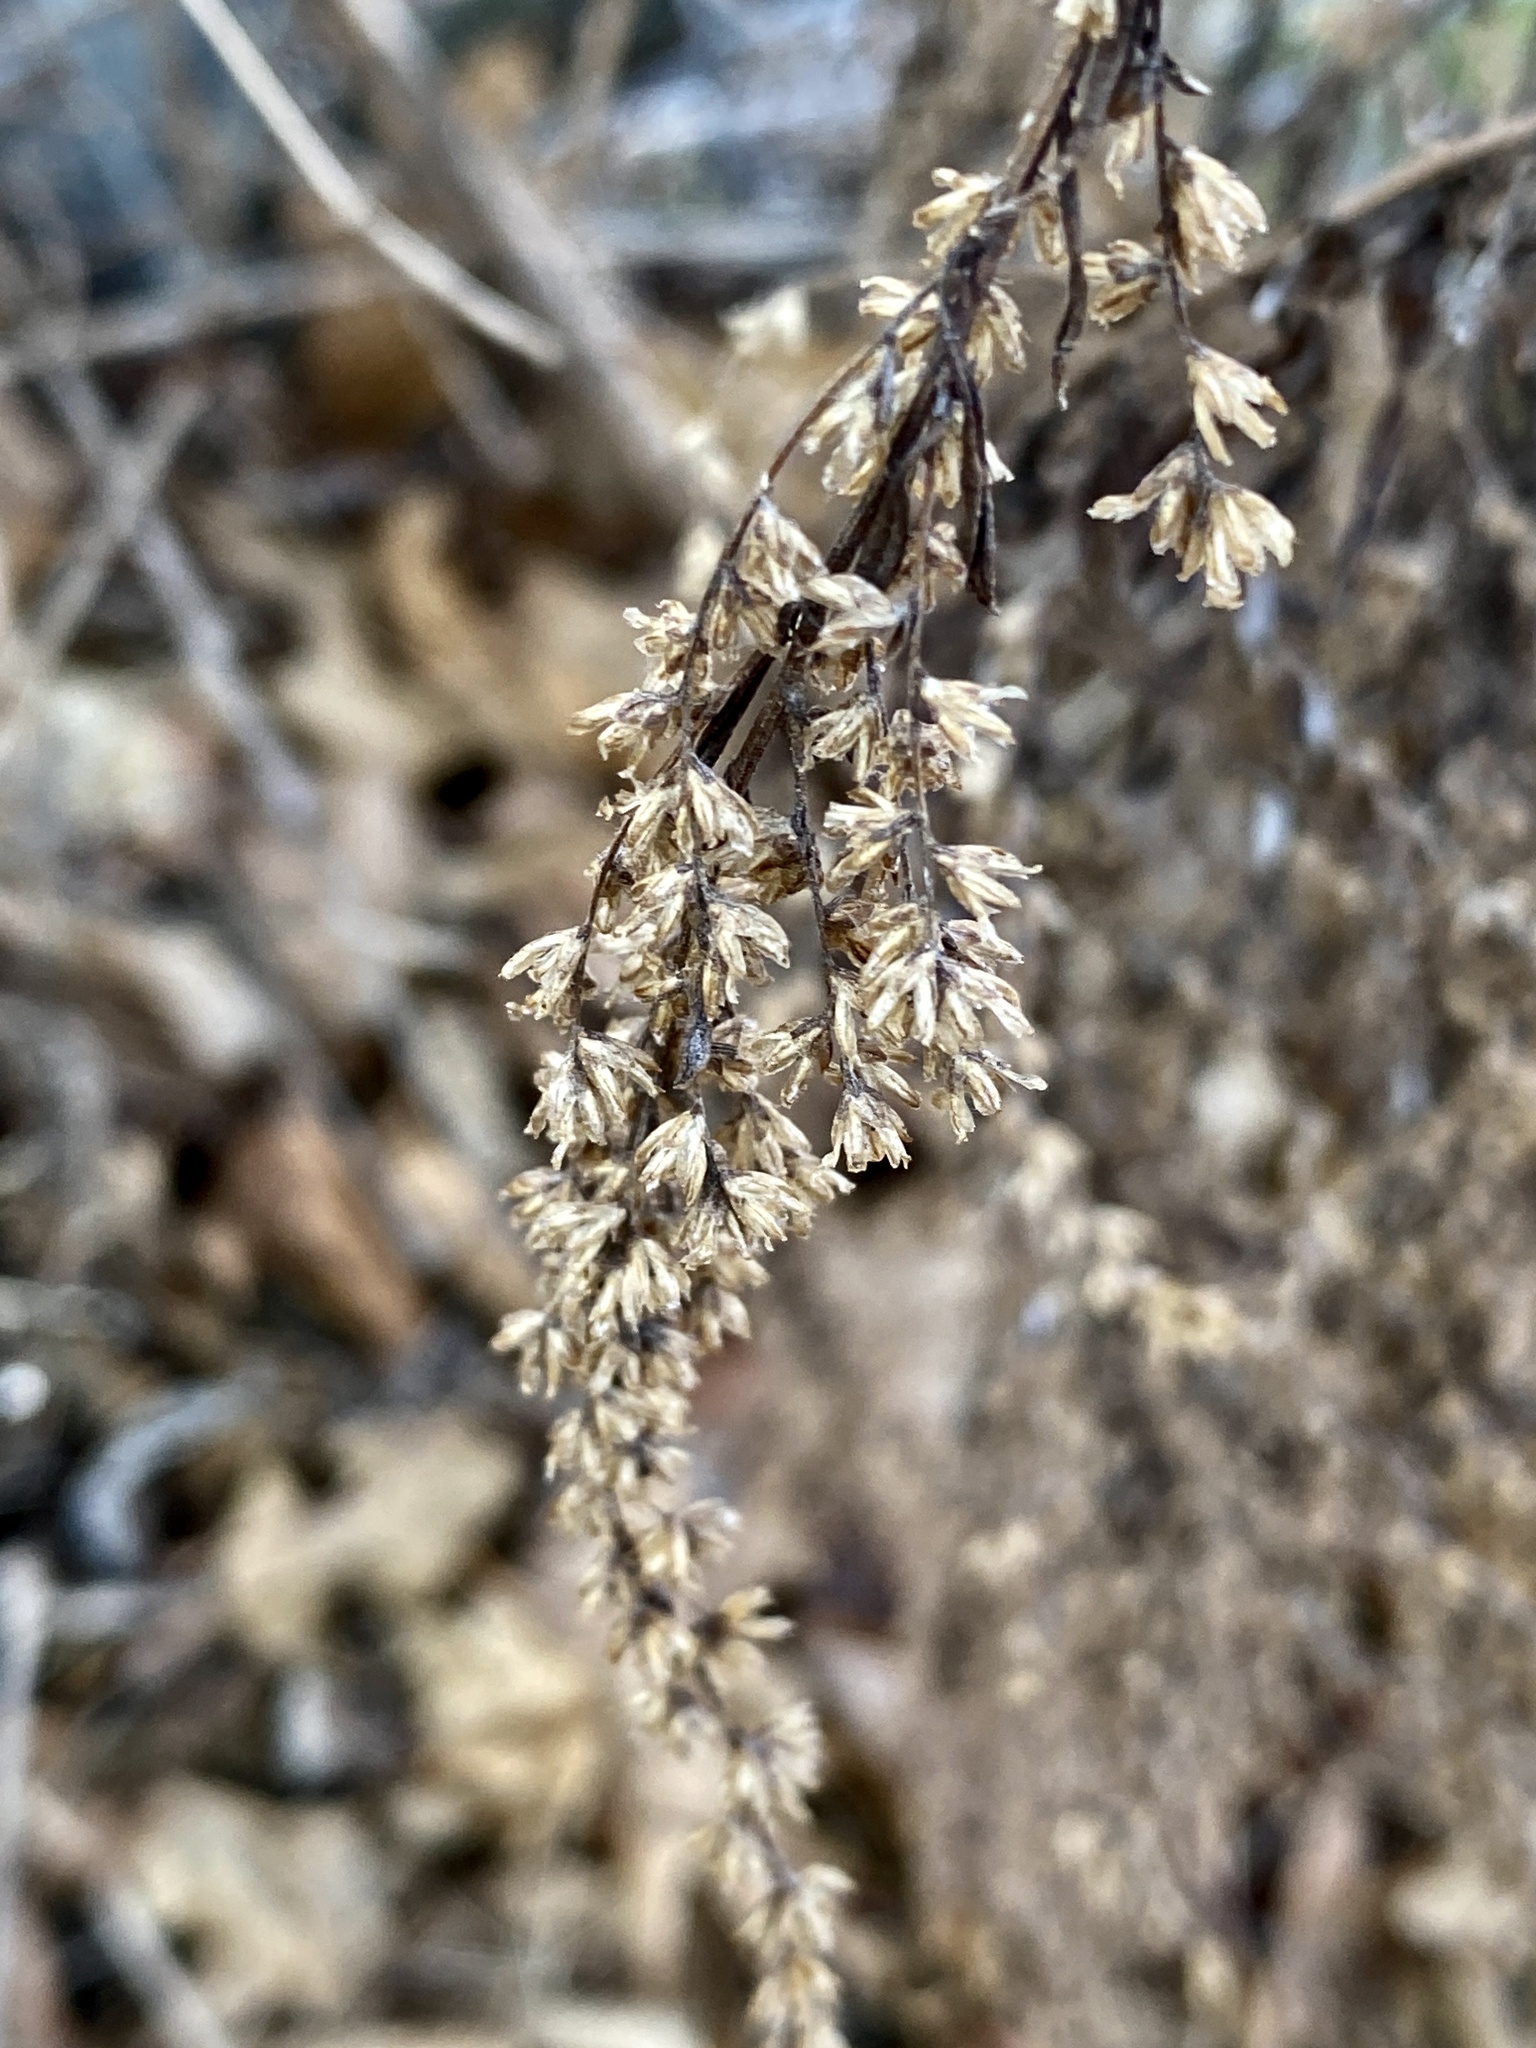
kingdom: Plantae
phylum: Tracheophyta
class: Magnoliopsida
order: Asterales
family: Asteraceae
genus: Artemisia
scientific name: Artemisia vulgaris
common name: Mugwort
